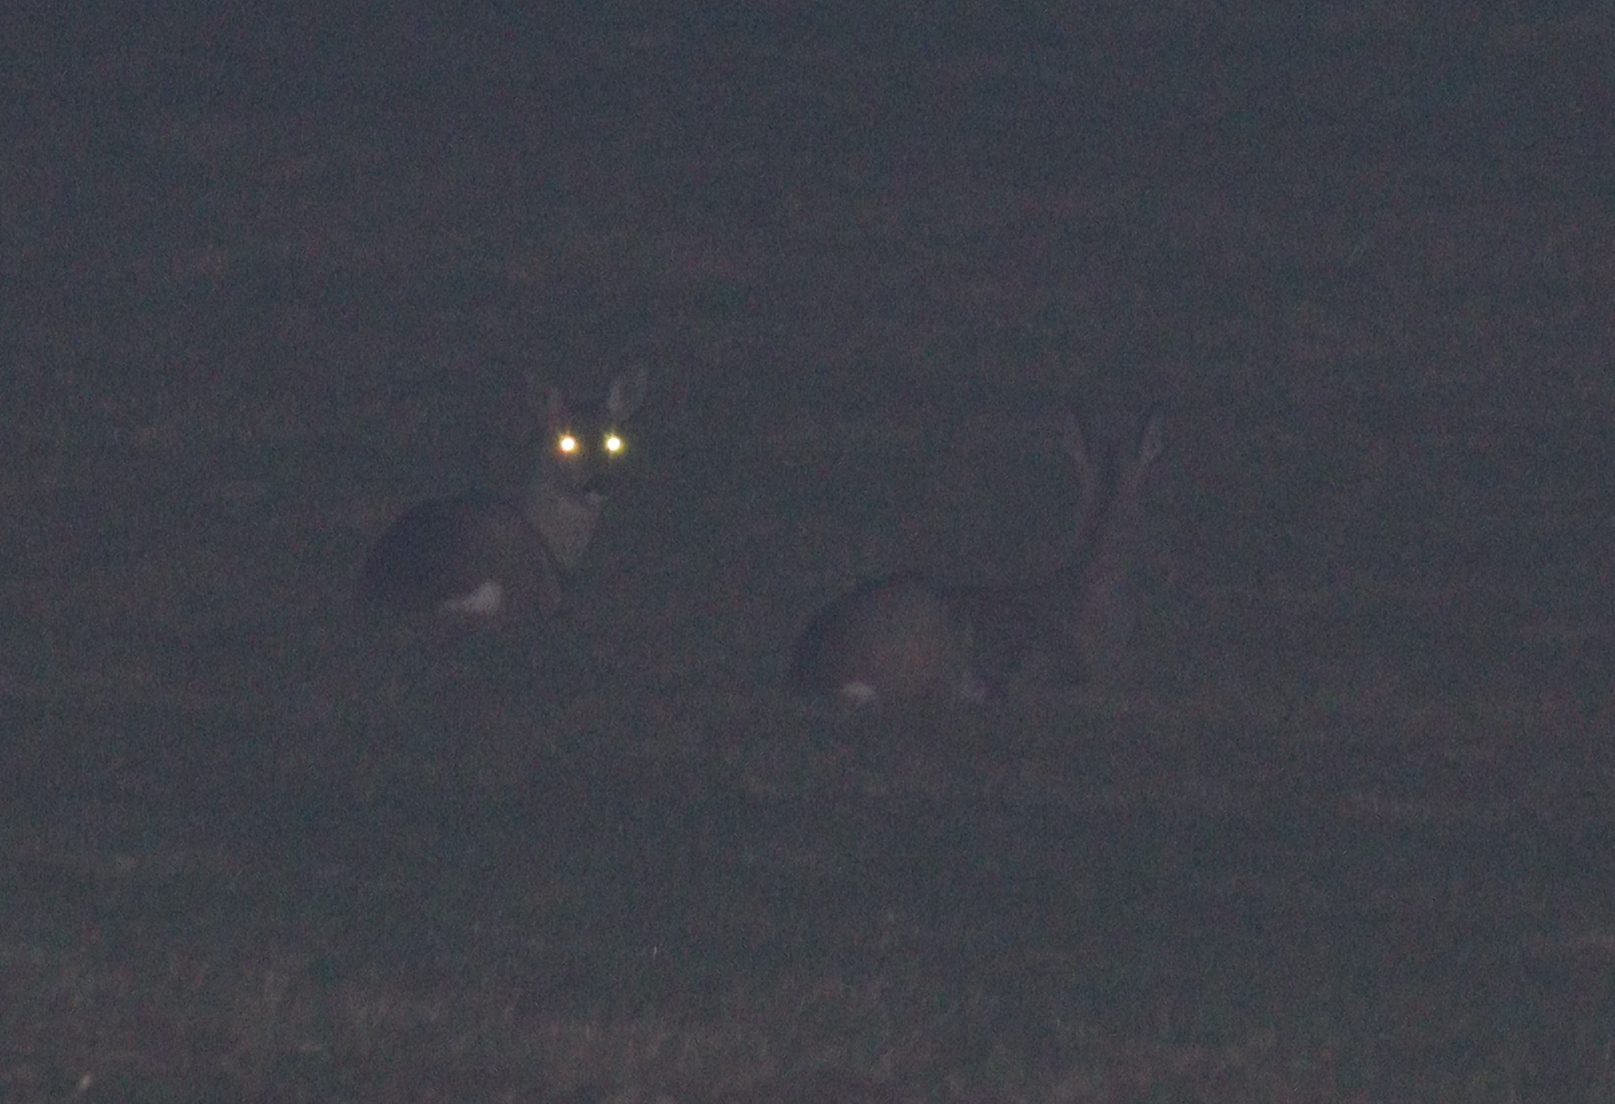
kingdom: Animalia
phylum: Chordata
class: Mammalia
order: Artiodactyla
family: Cervidae
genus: Capreolus
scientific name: Capreolus capreolus
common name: Western roe deer
